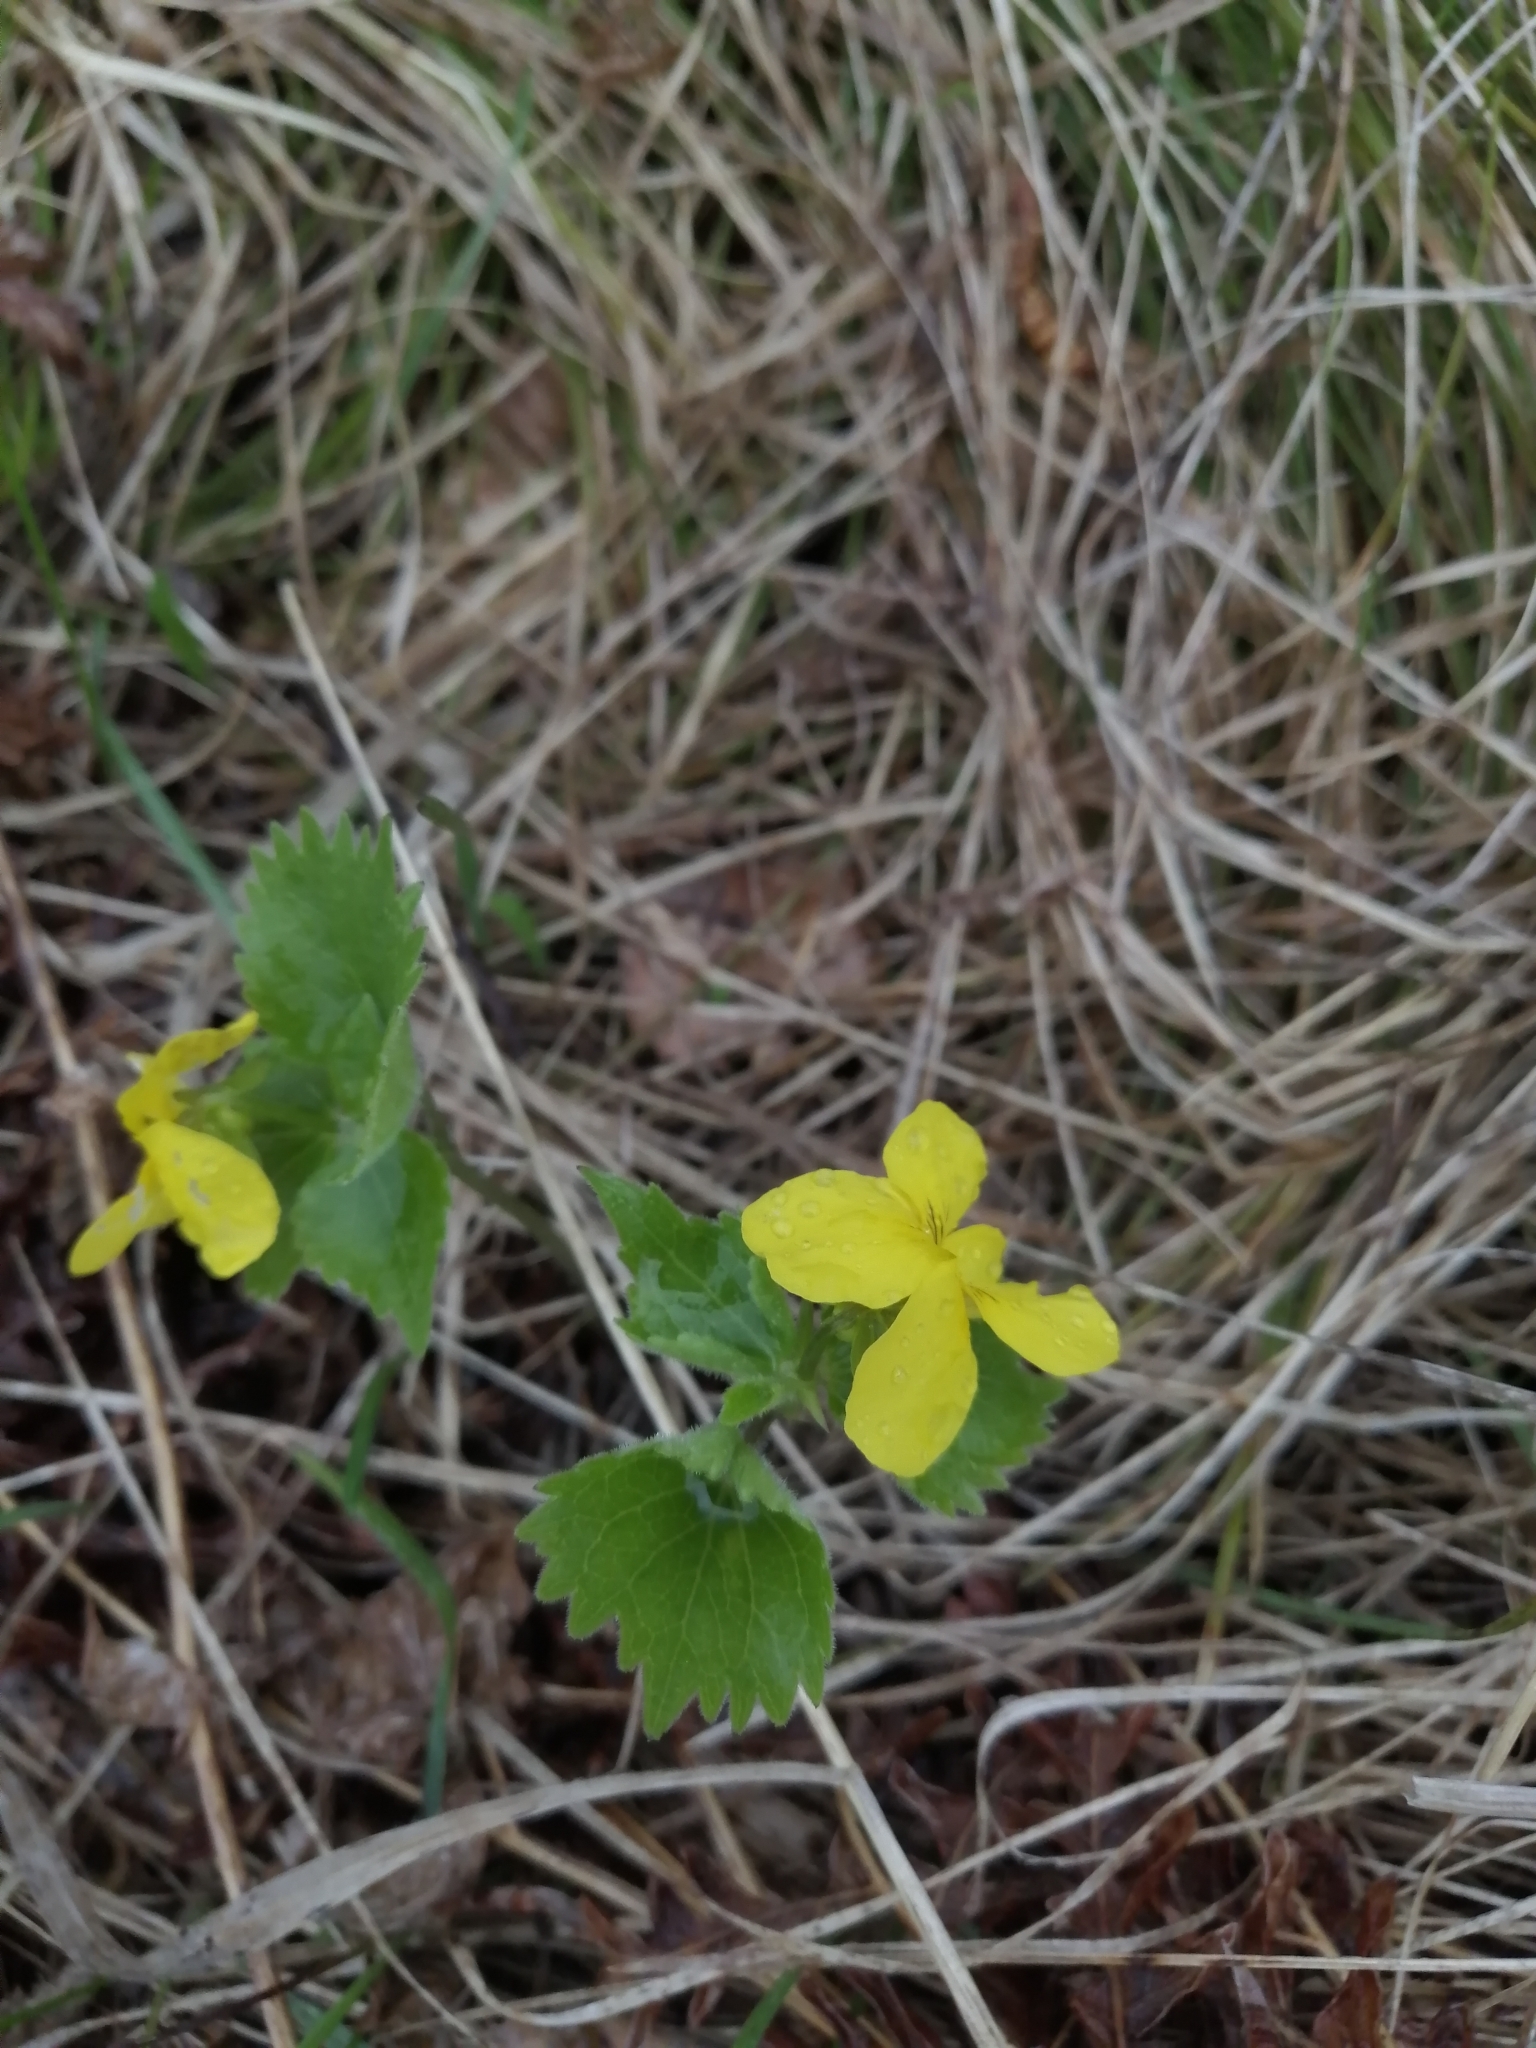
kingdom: Plantae
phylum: Tracheophyta
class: Magnoliopsida
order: Malpighiales
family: Violaceae
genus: Viola
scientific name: Viola uniflora
